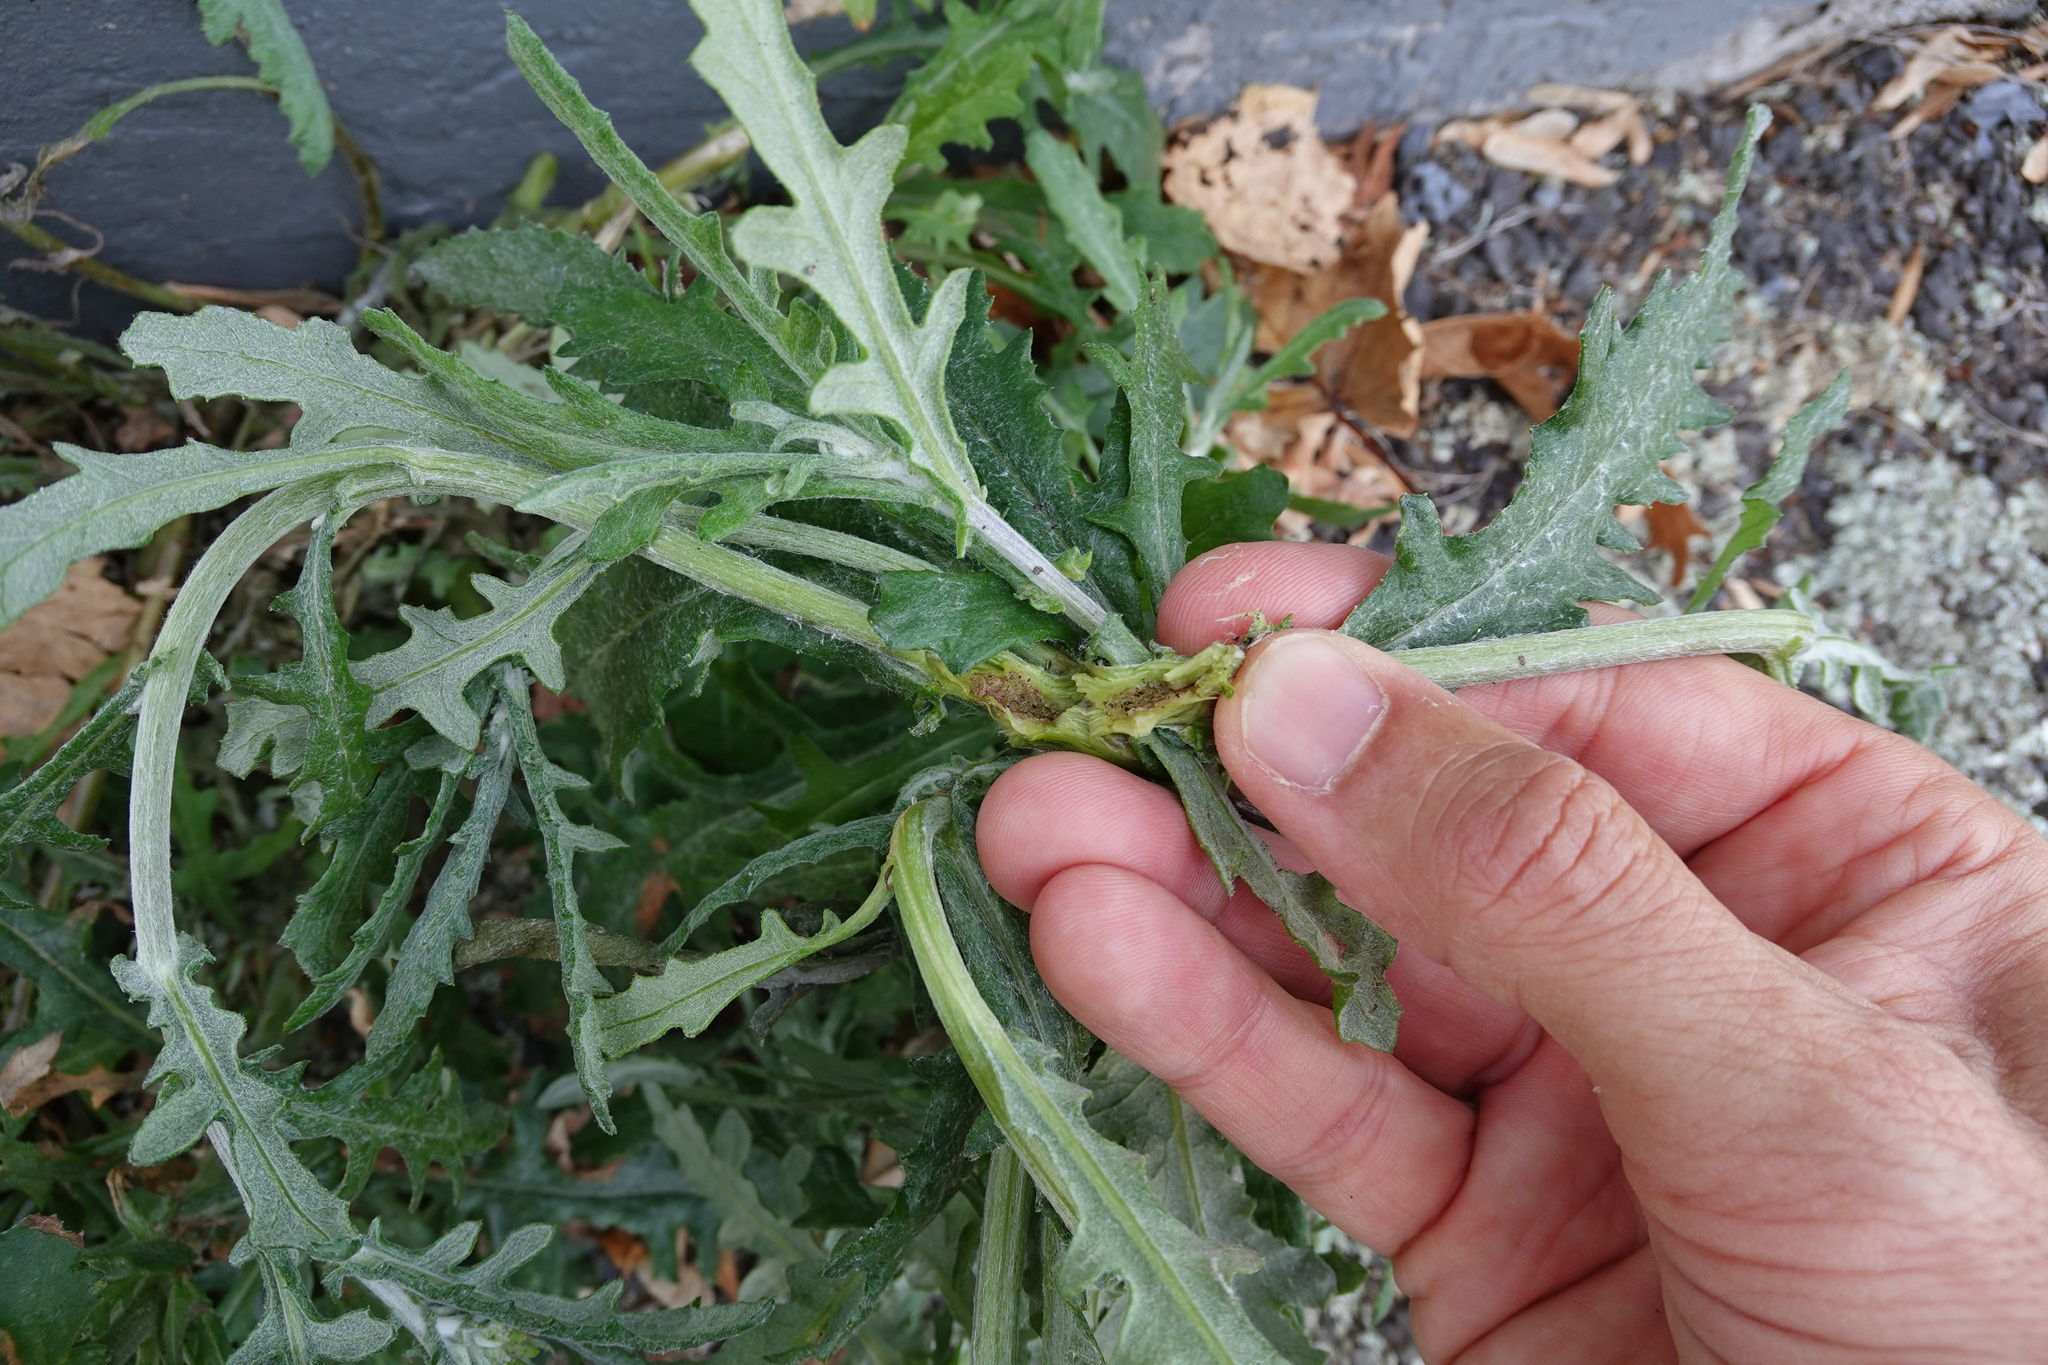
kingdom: Animalia
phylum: Arthropoda
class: Insecta
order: Diptera
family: Tephritidae
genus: Sphenella
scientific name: Sphenella
